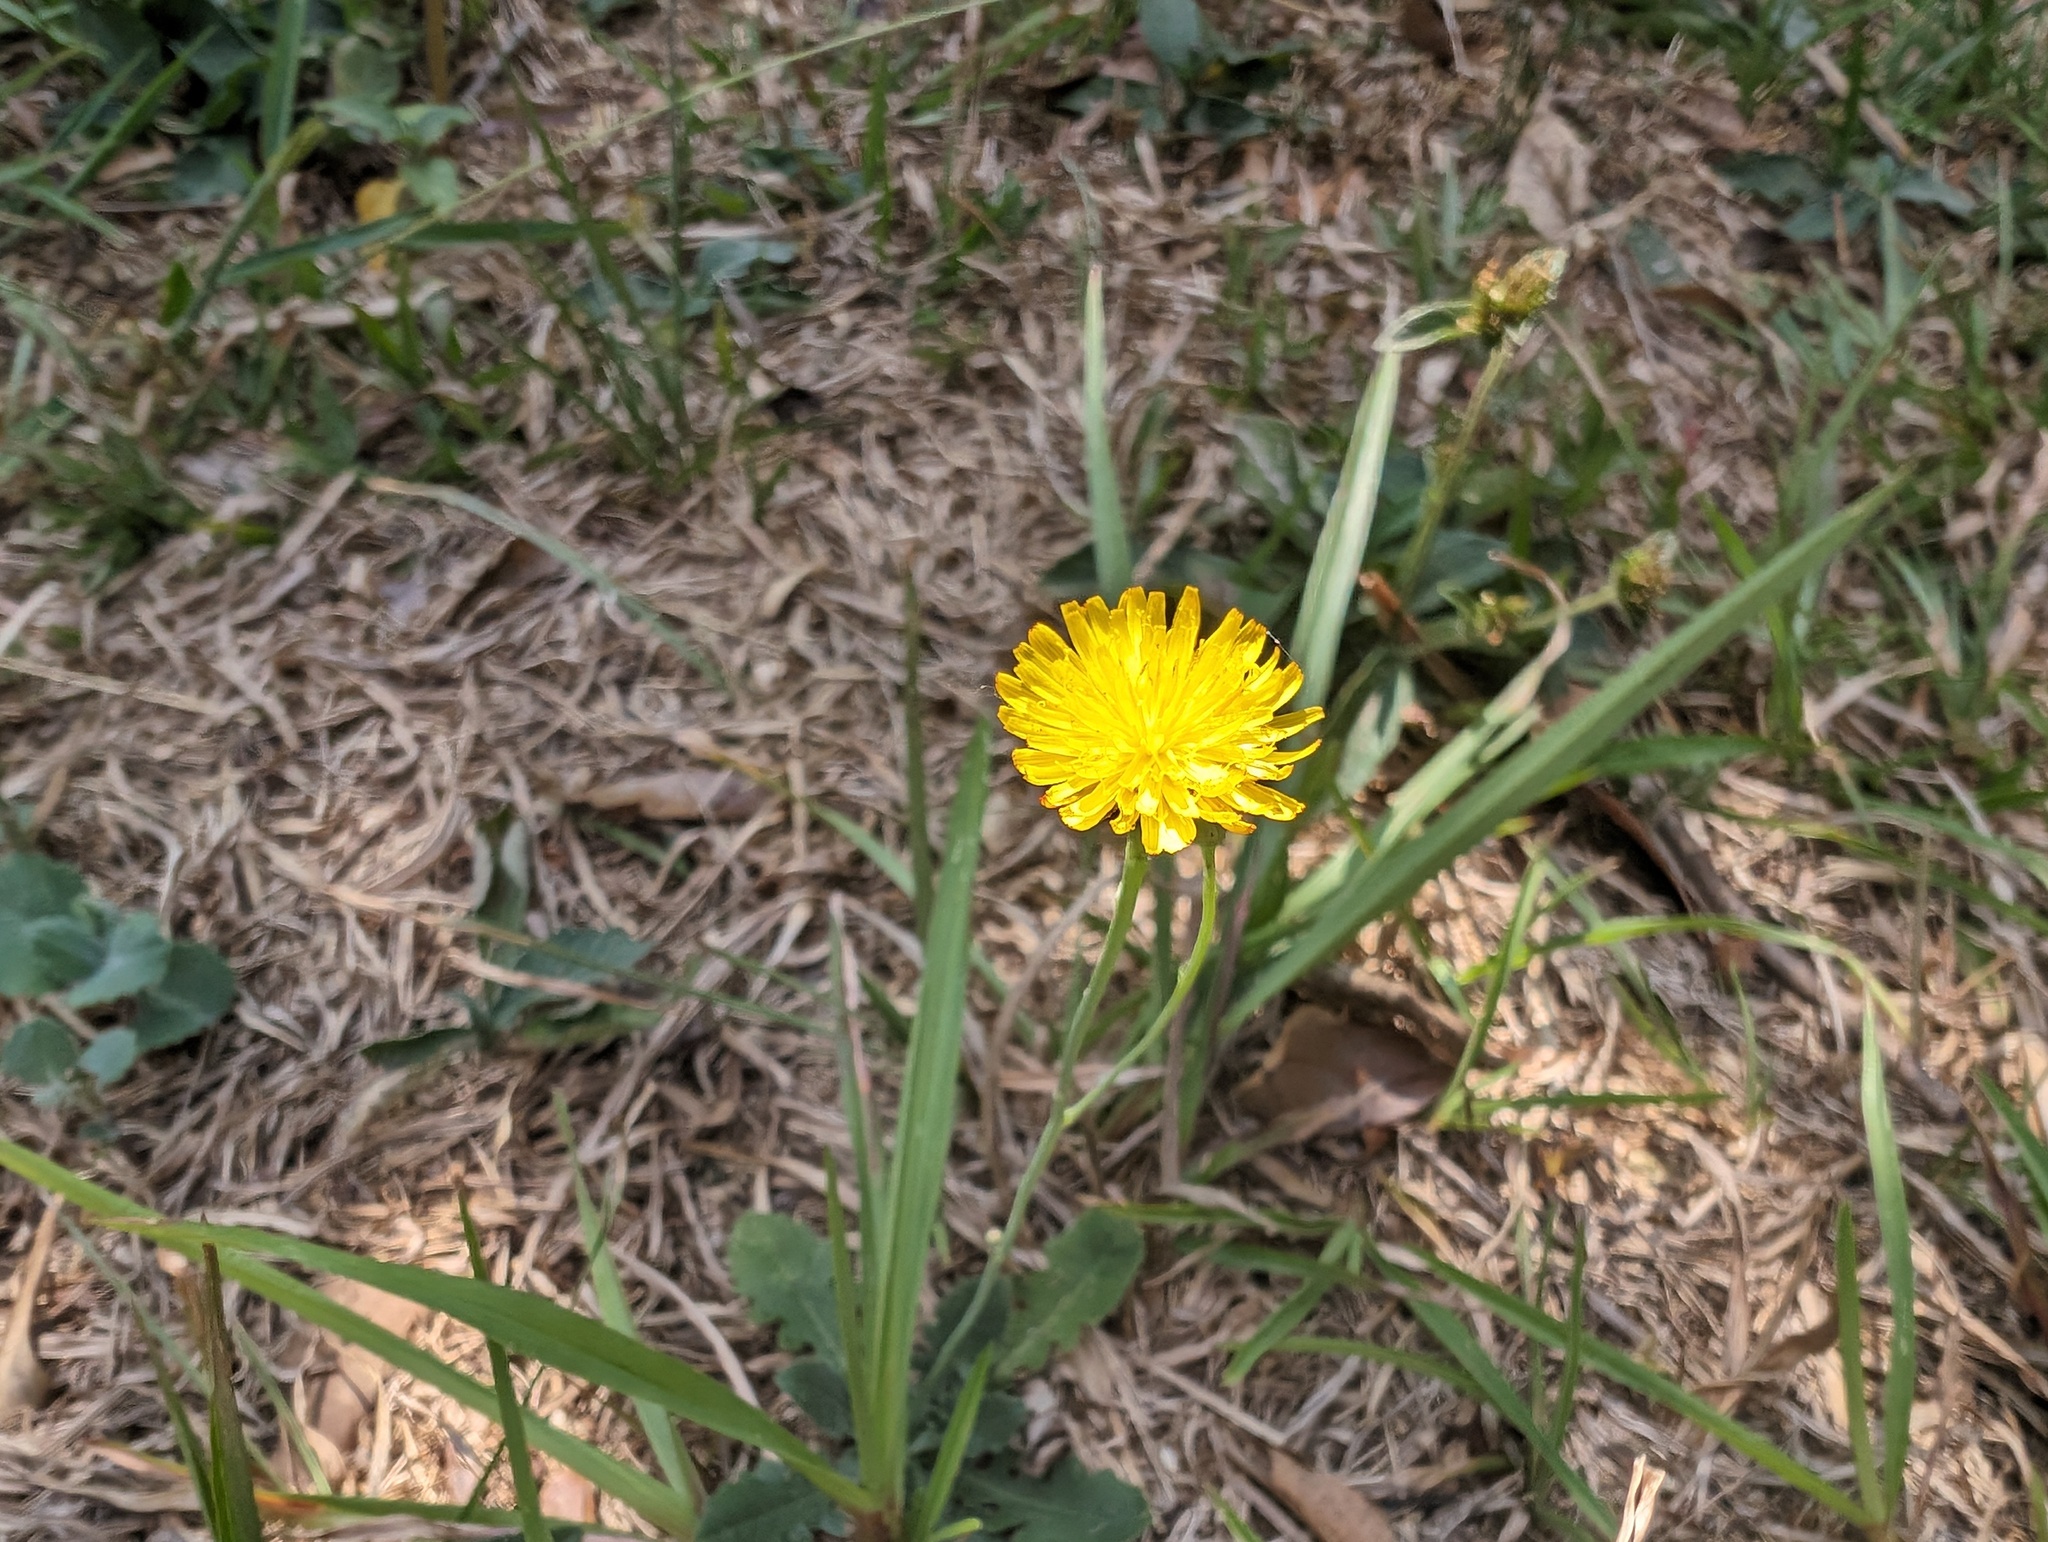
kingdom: Plantae
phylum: Tracheophyta
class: Magnoliopsida
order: Asterales
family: Asteraceae
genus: Hypochaeris
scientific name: Hypochaeris radicata
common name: Flatweed
